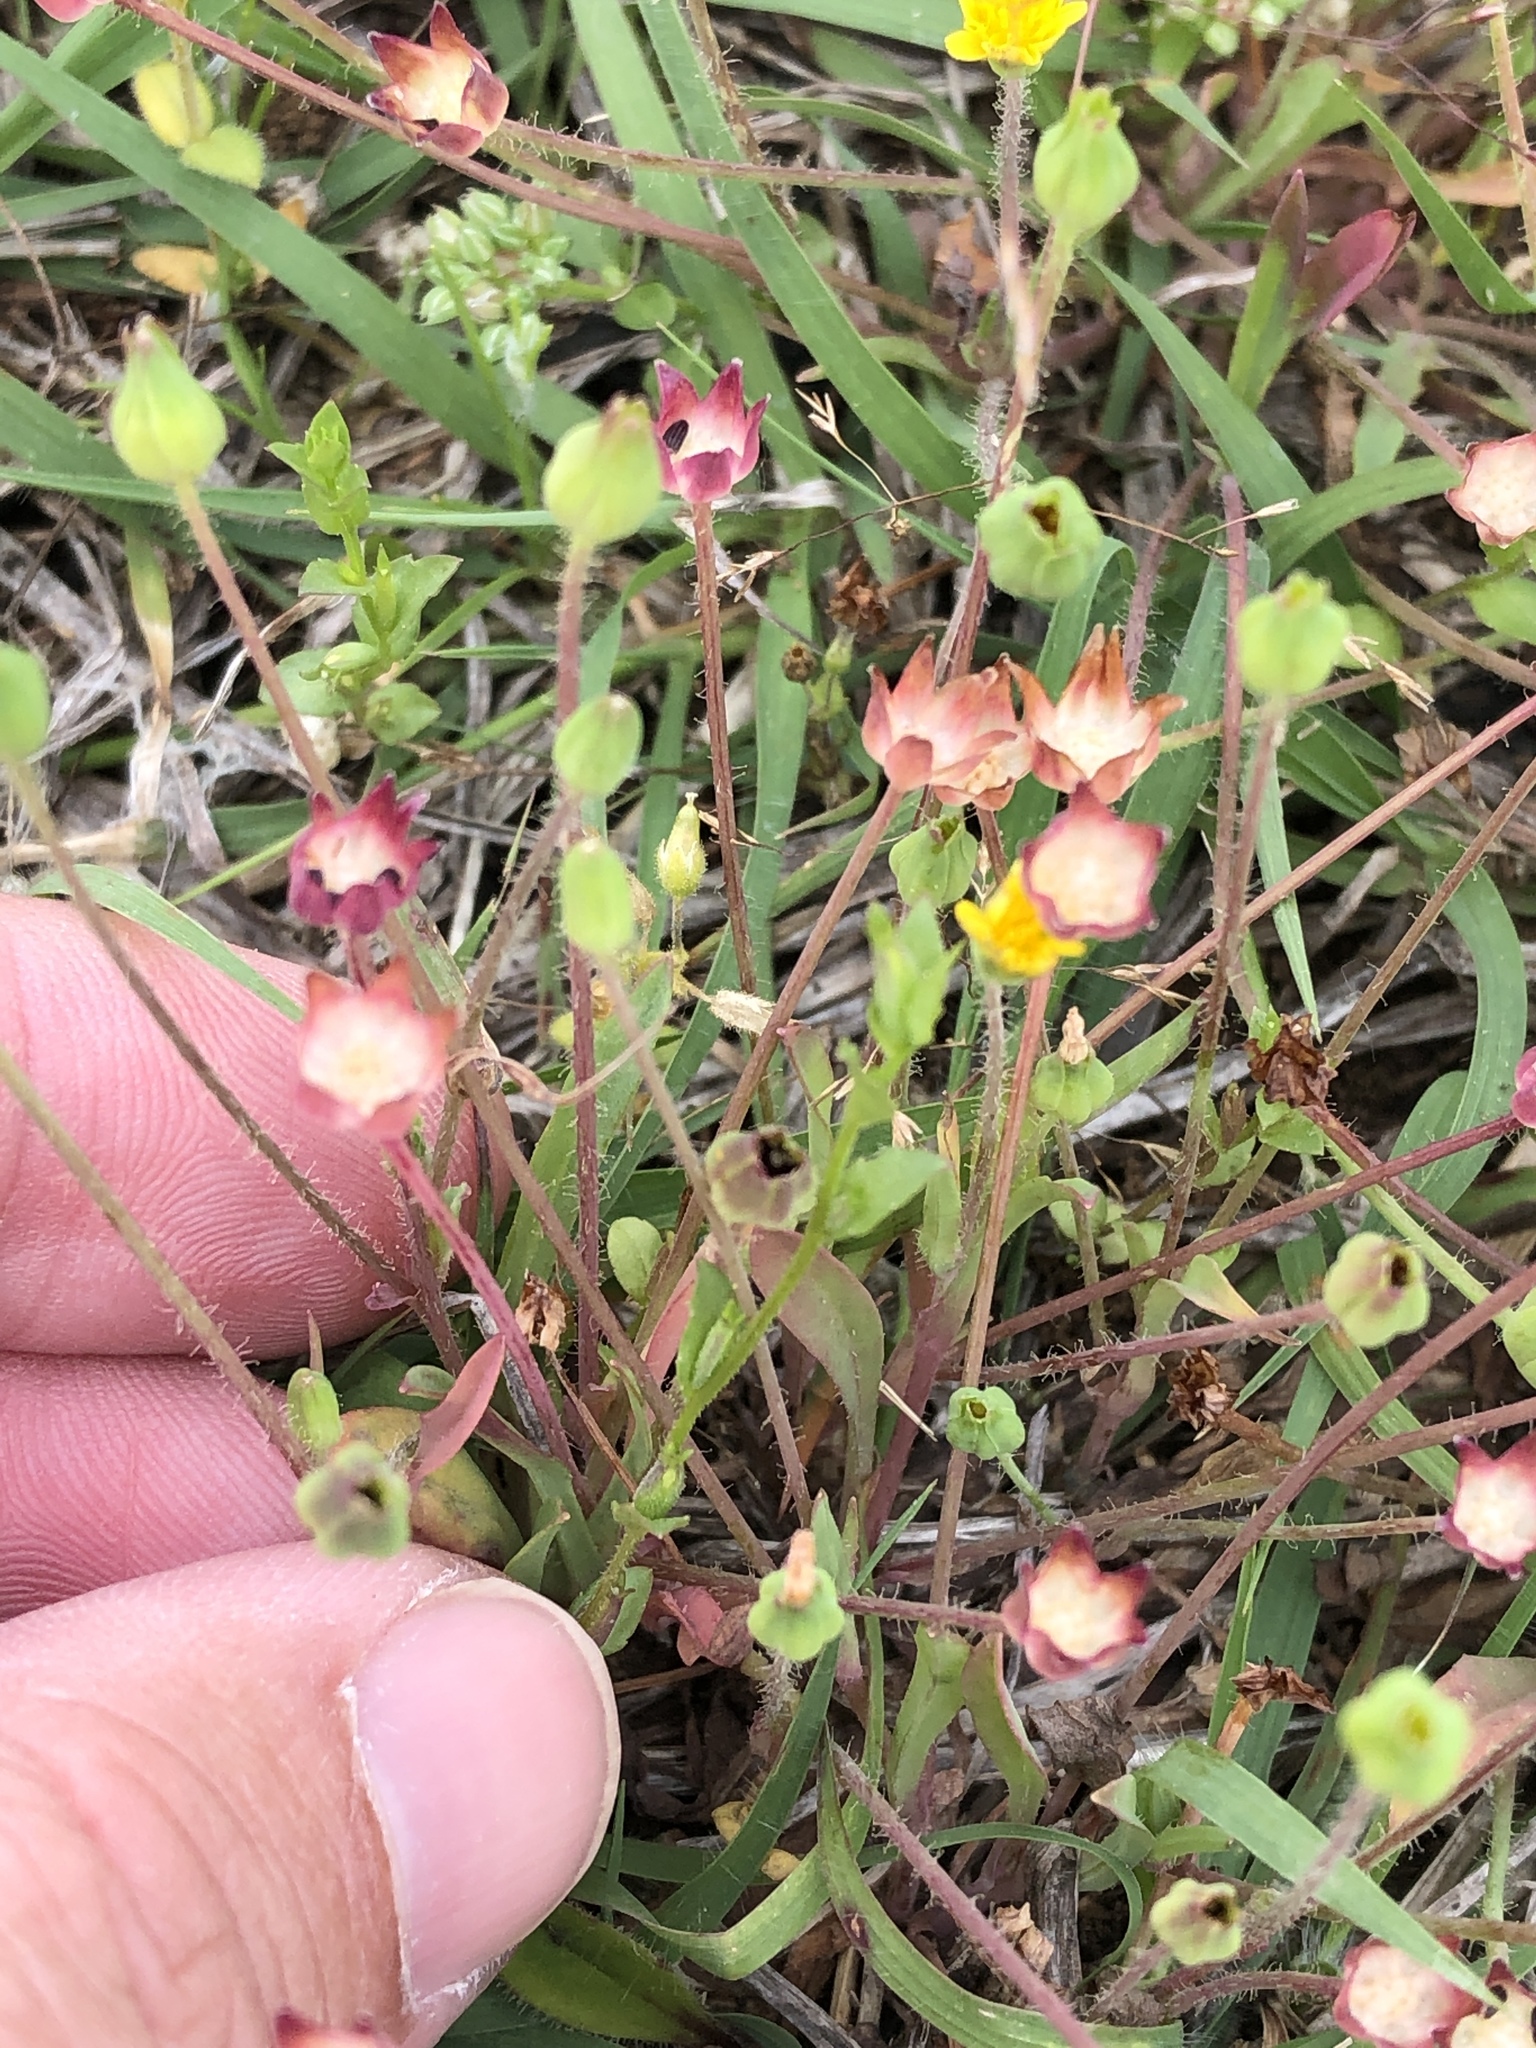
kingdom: Plantae
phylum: Tracheophyta
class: Magnoliopsida
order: Asterales
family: Asteraceae
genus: Krigia
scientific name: Krigia occidentalis
